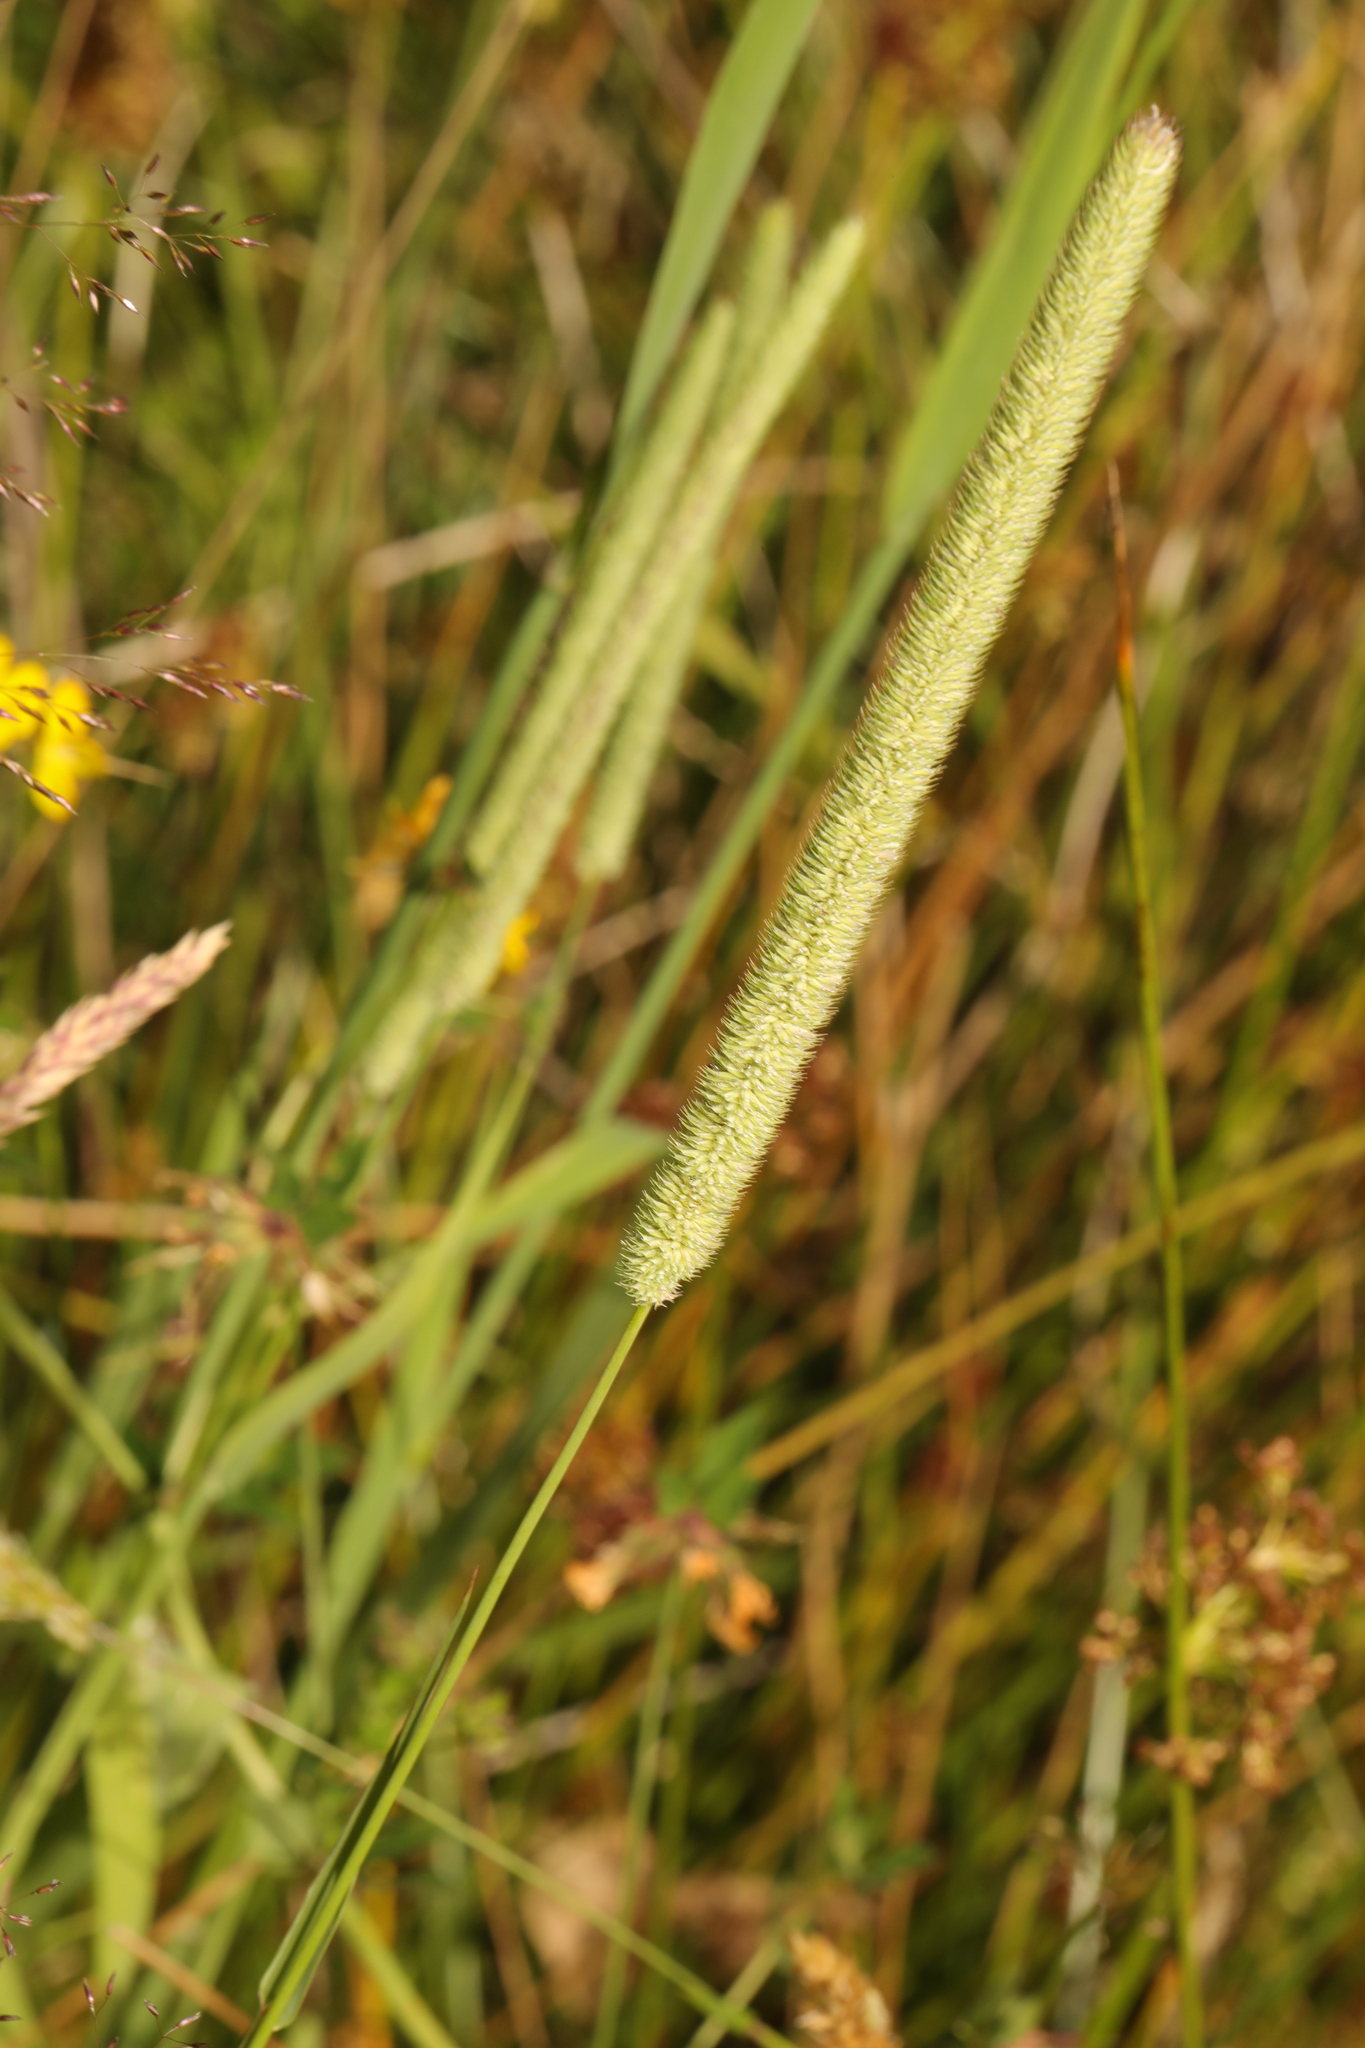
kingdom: Plantae
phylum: Tracheophyta
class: Liliopsida
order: Poales
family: Poaceae
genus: Phleum
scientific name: Phleum pratense
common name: Timothy grass
